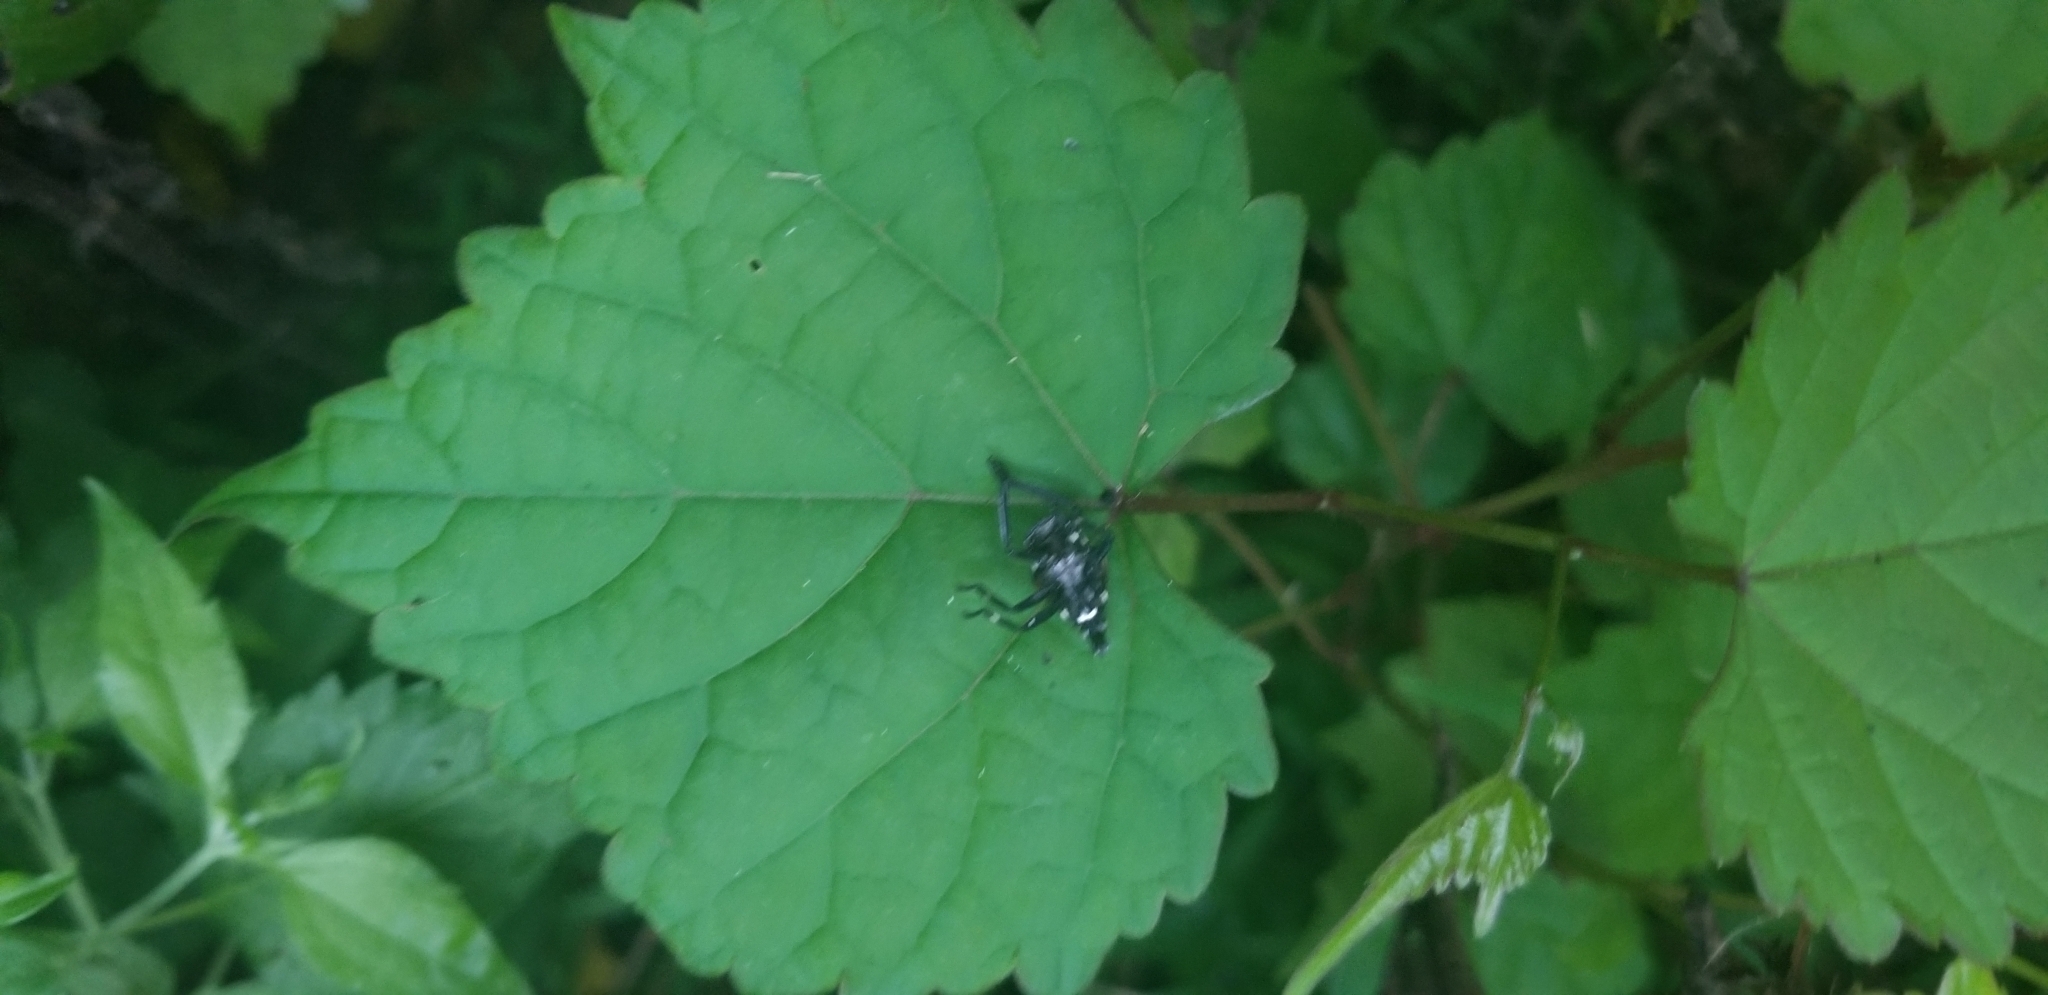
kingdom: Animalia
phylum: Arthropoda
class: Insecta
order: Hemiptera
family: Fulgoridae
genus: Lycorma
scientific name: Lycorma delicatula
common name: Spotted lanternfly
